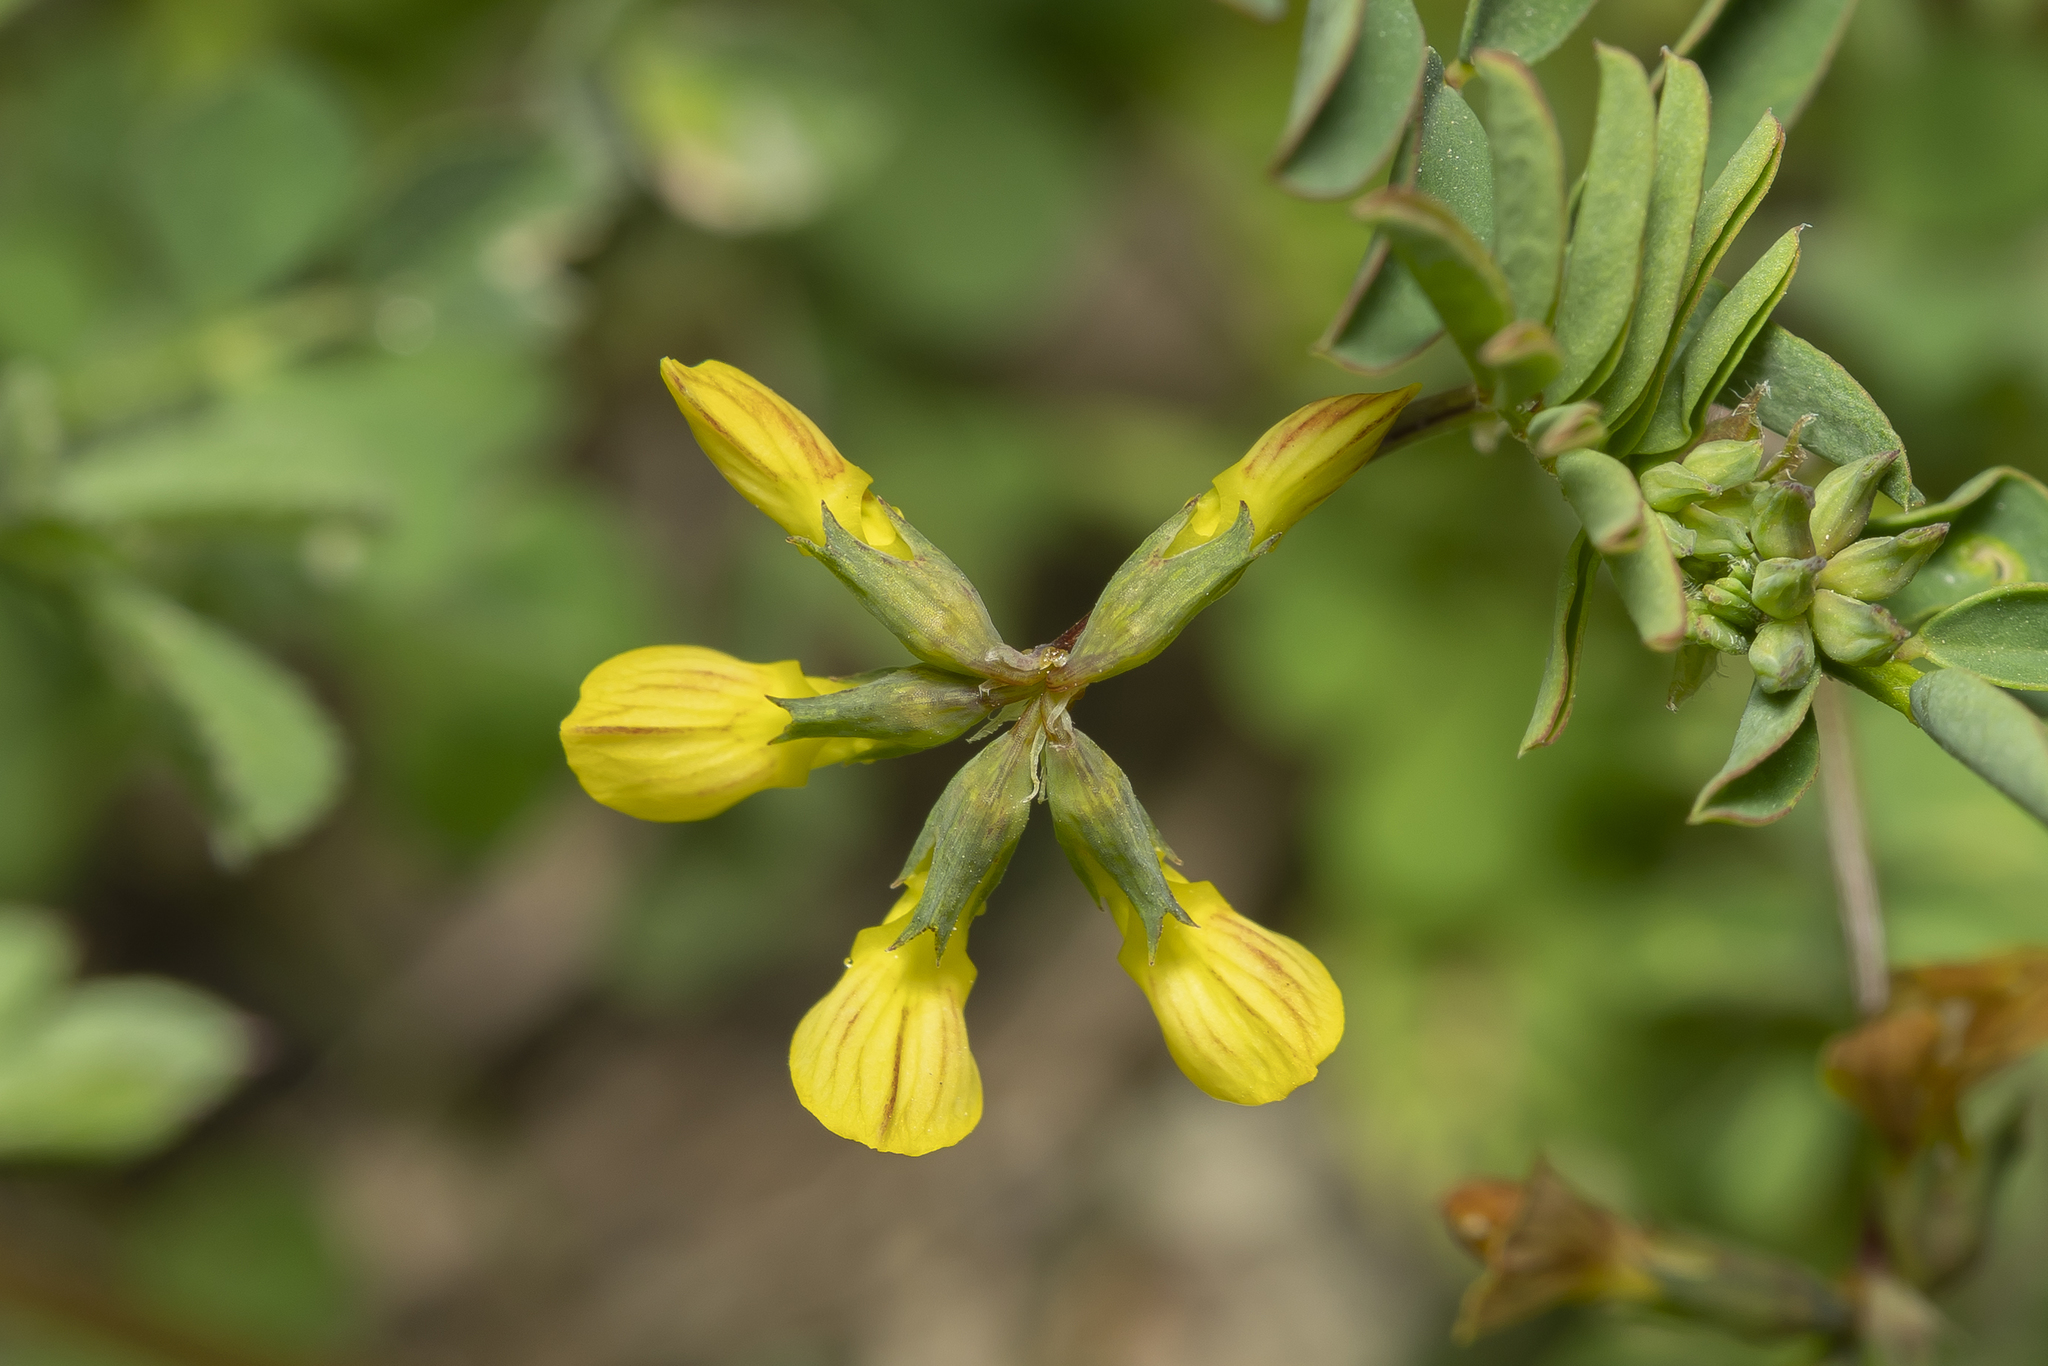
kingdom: Plantae
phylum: Tracheophyta
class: Magnoliopsida
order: Fabales
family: Fabaceae
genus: Hippocrepis
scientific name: Hippocrepis
